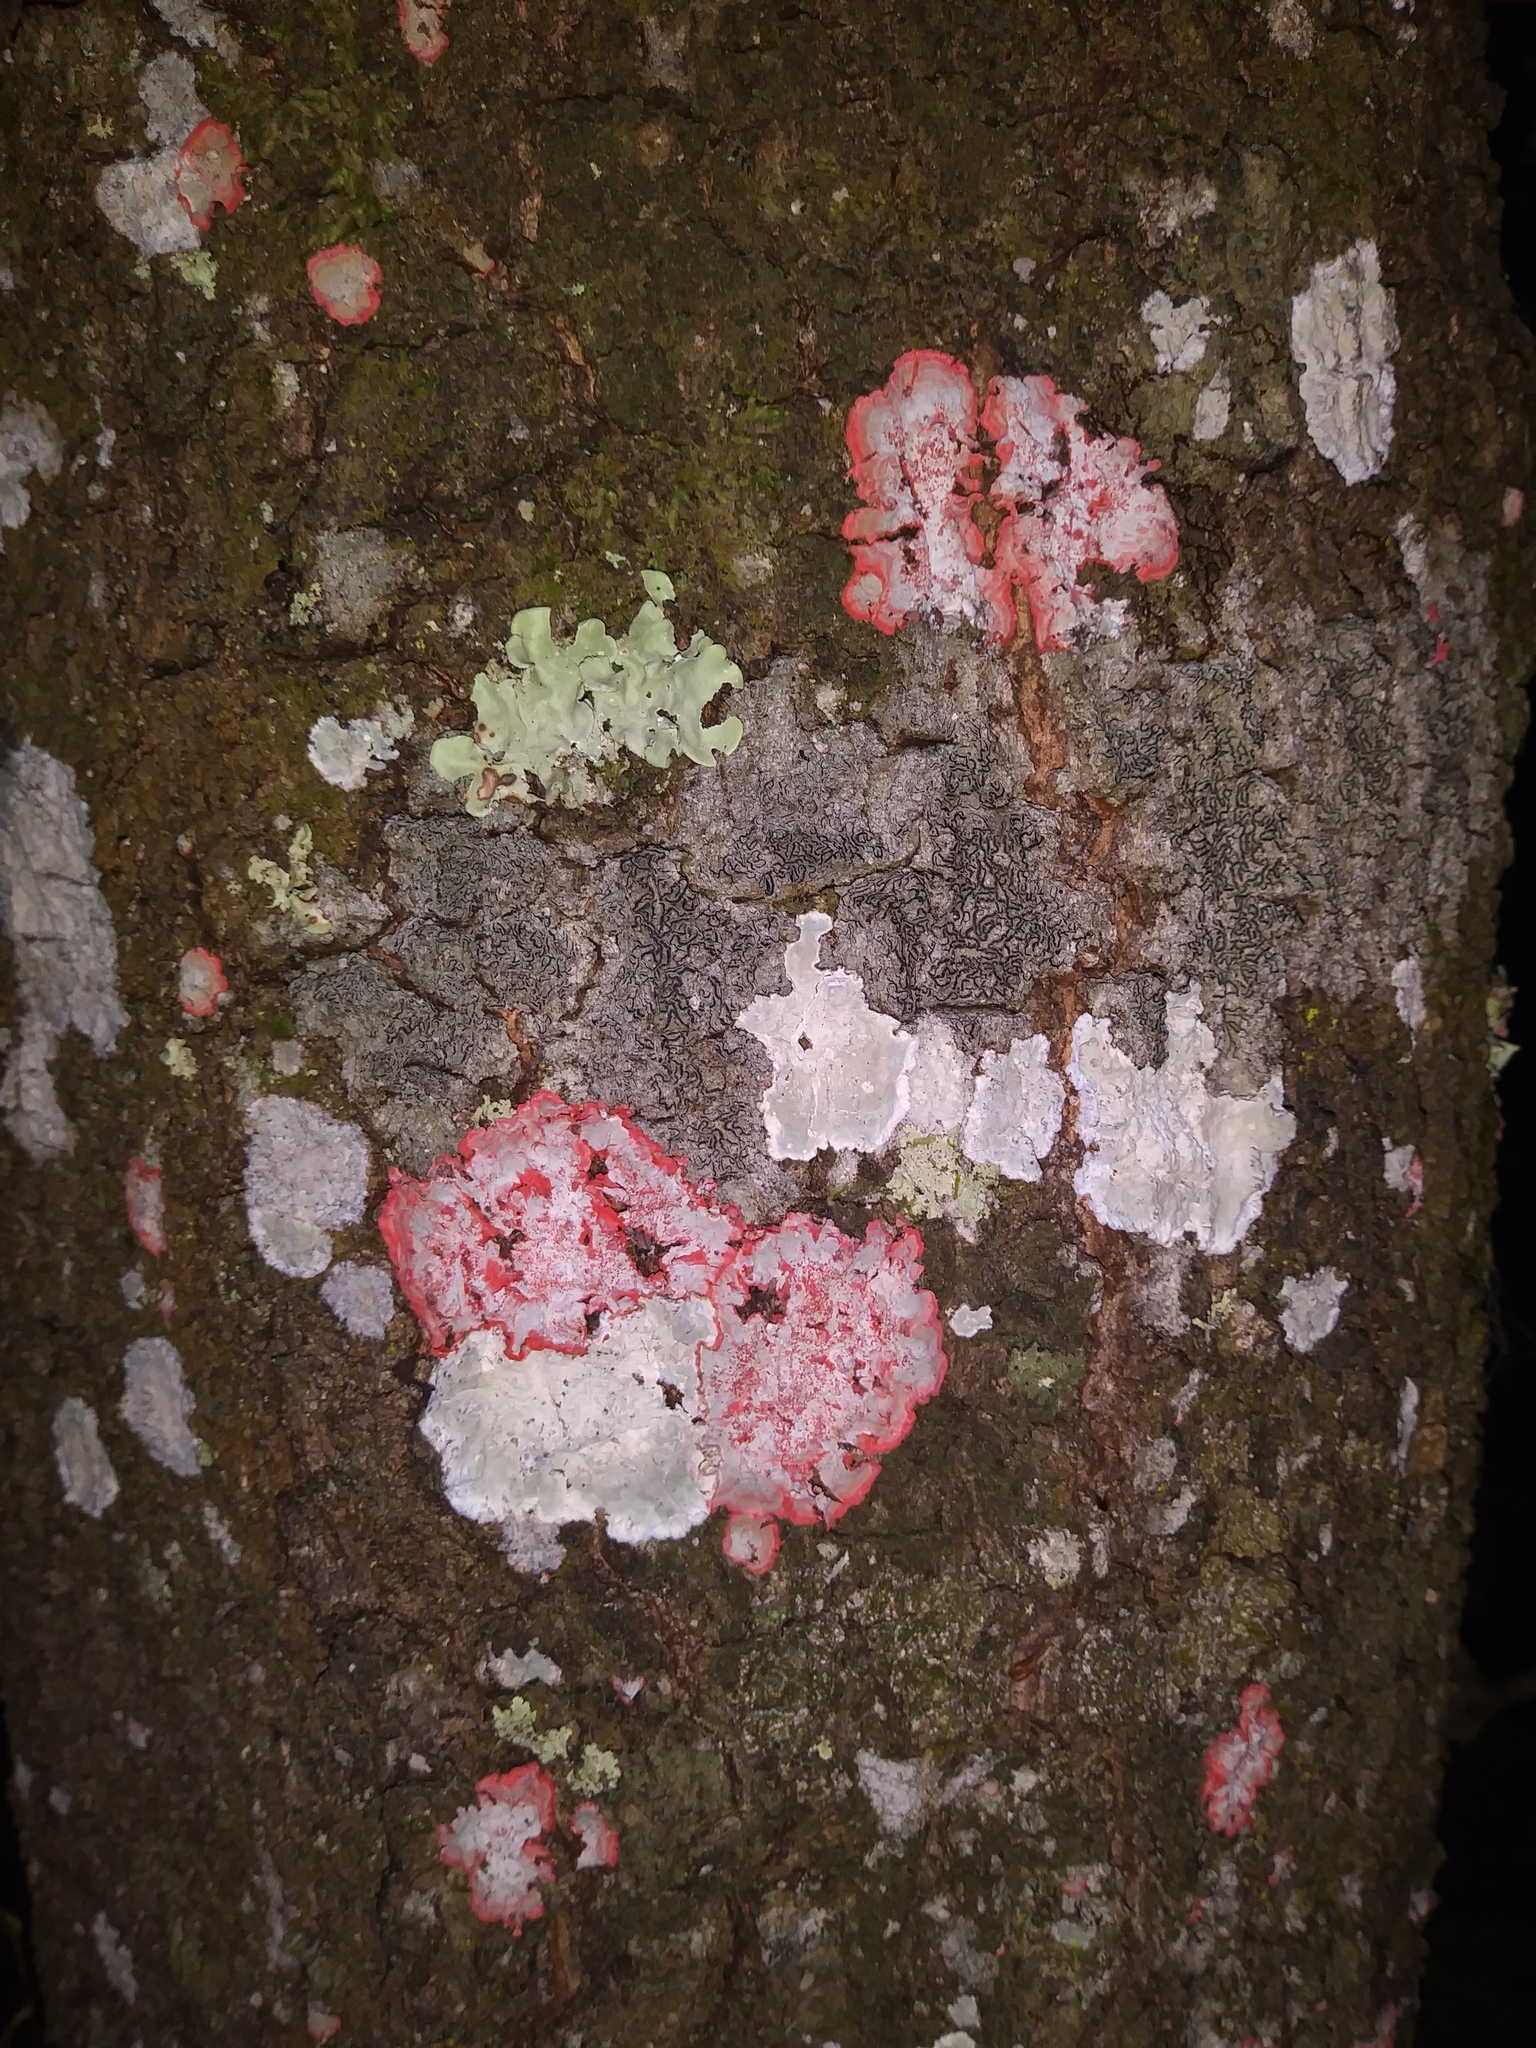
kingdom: Fungi
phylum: Ascomycota
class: Arthoniomycetes
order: Arthoniales
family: Arthoniaceae
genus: Herpothallon
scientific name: Herpothallon rubrocinctum
